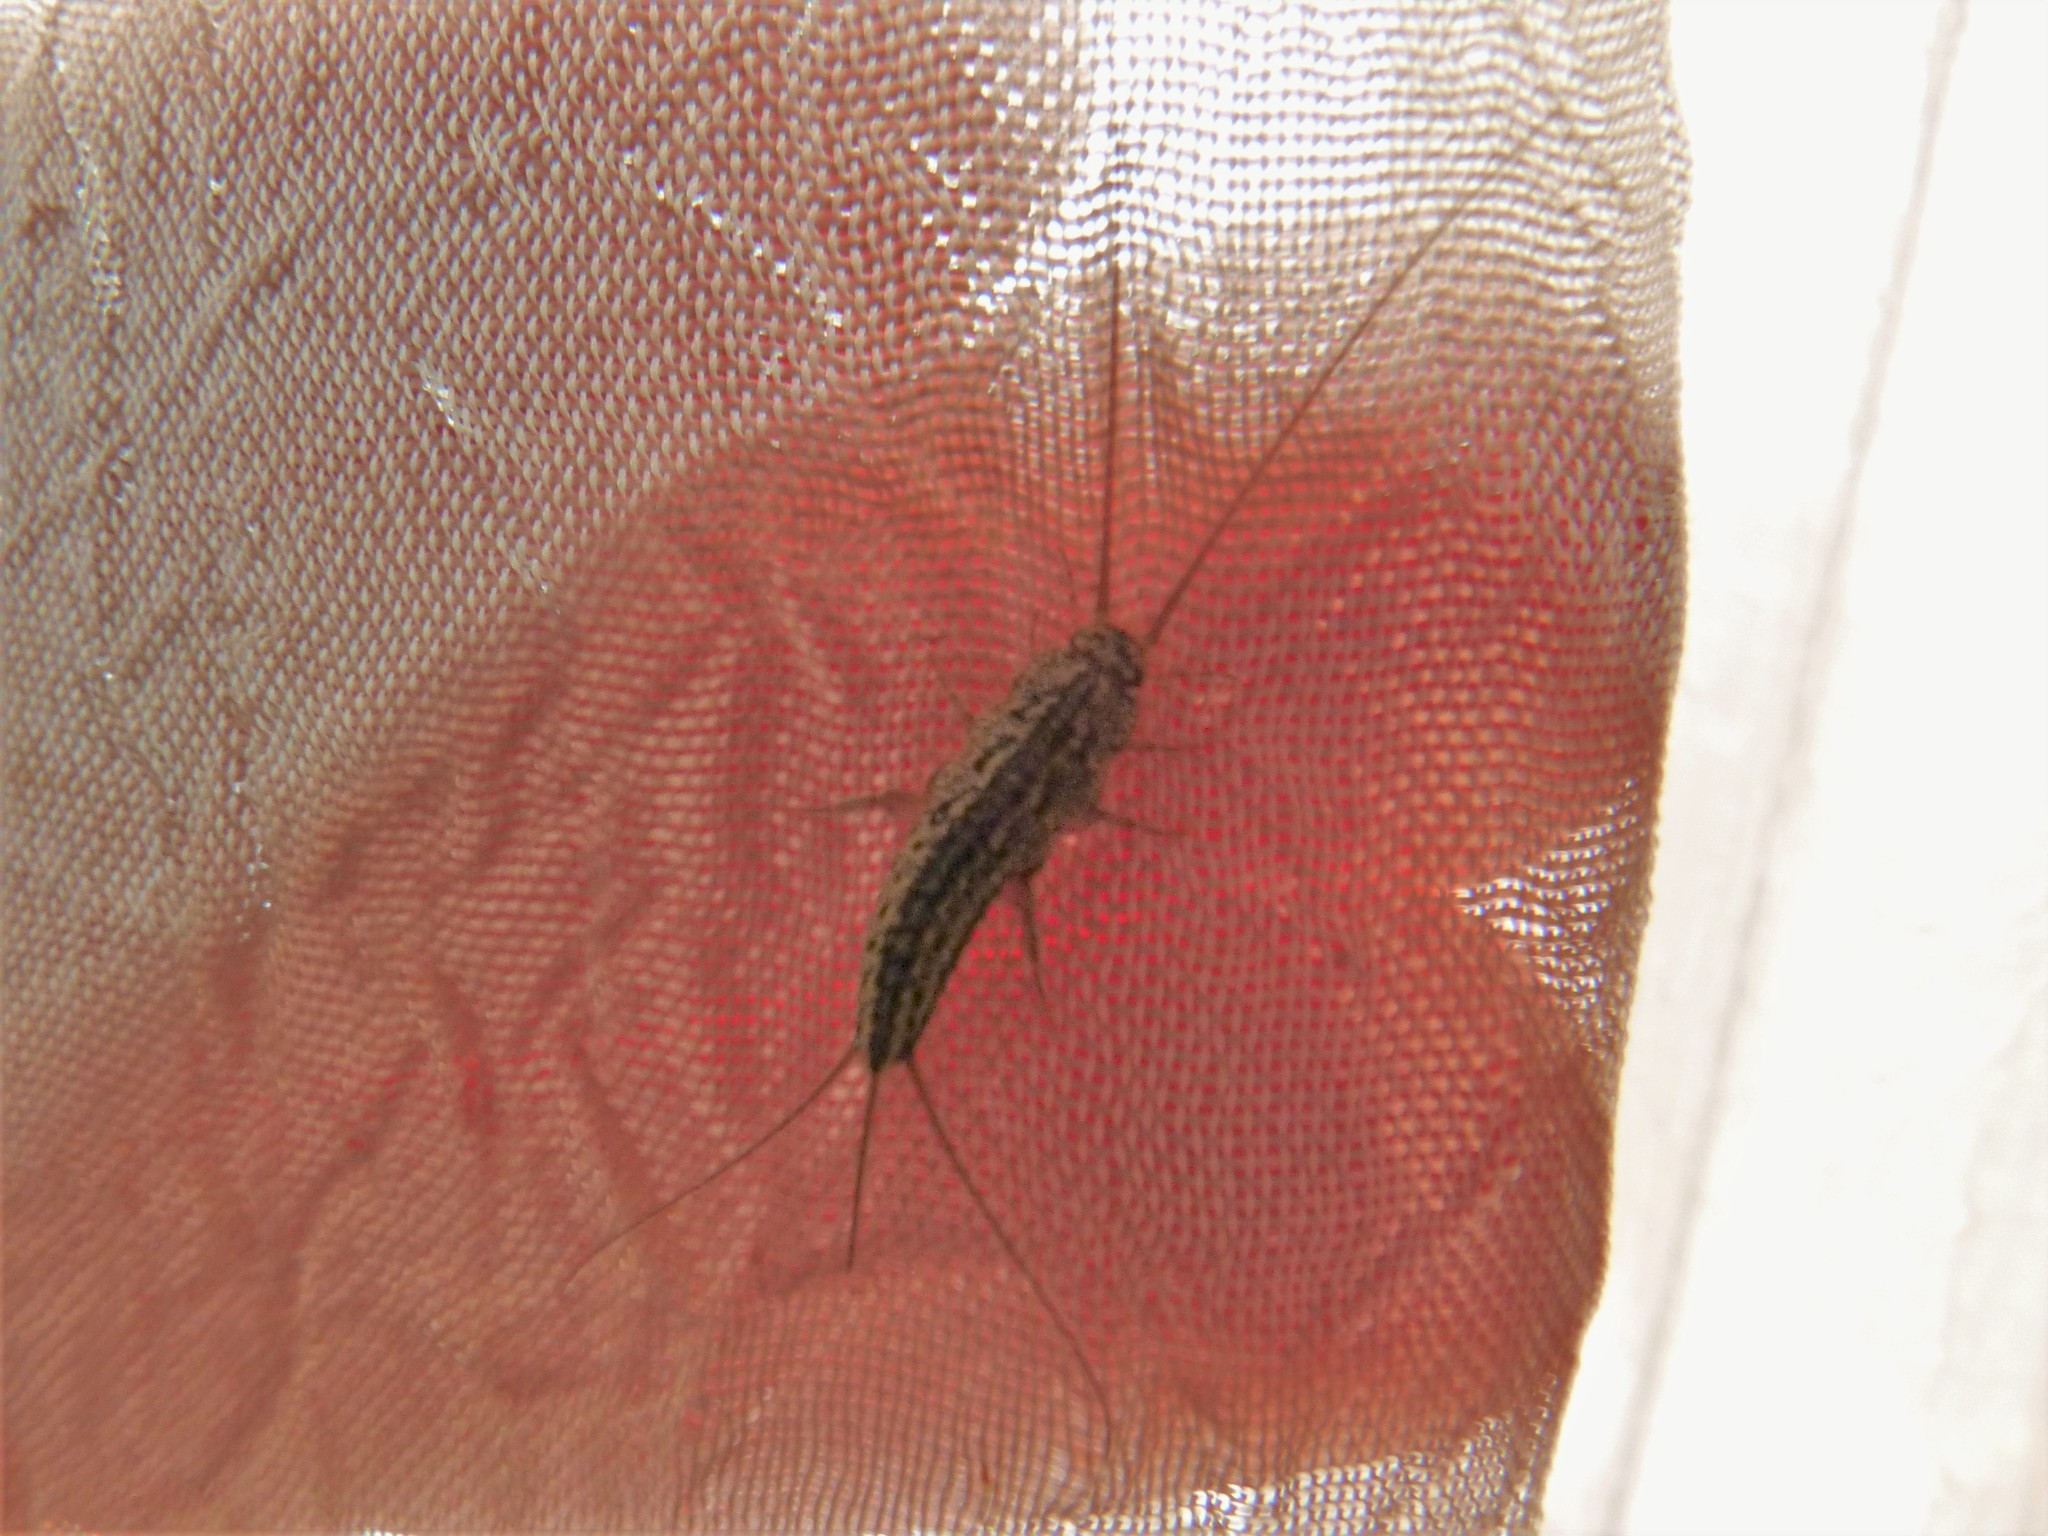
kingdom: Animalia
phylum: Arthropoda
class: Insecta
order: Zygentoma
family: Lepismatidae
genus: Ctenolepisma
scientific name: Ctenolepisma lineata
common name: Four-lined silverfish
